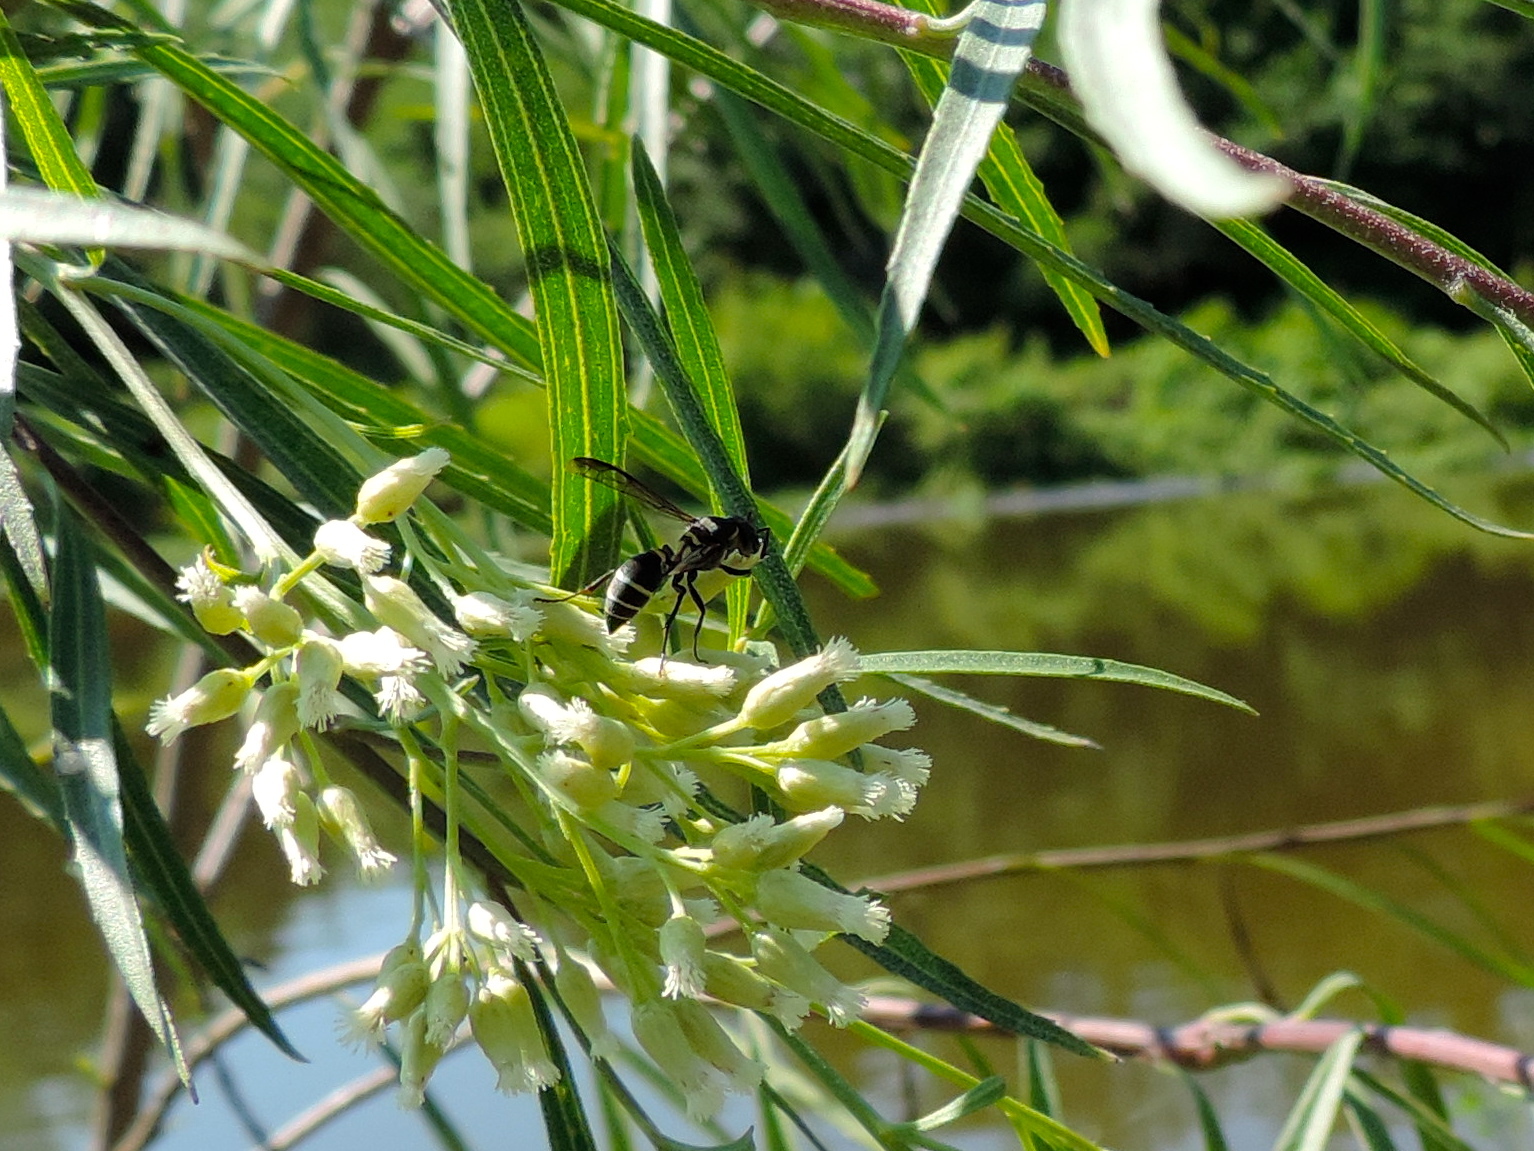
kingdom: Animalia
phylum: Arthropoda
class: Insecta
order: Hymenoptera
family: Vespidae
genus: Myrapetra
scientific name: Myrapetra
